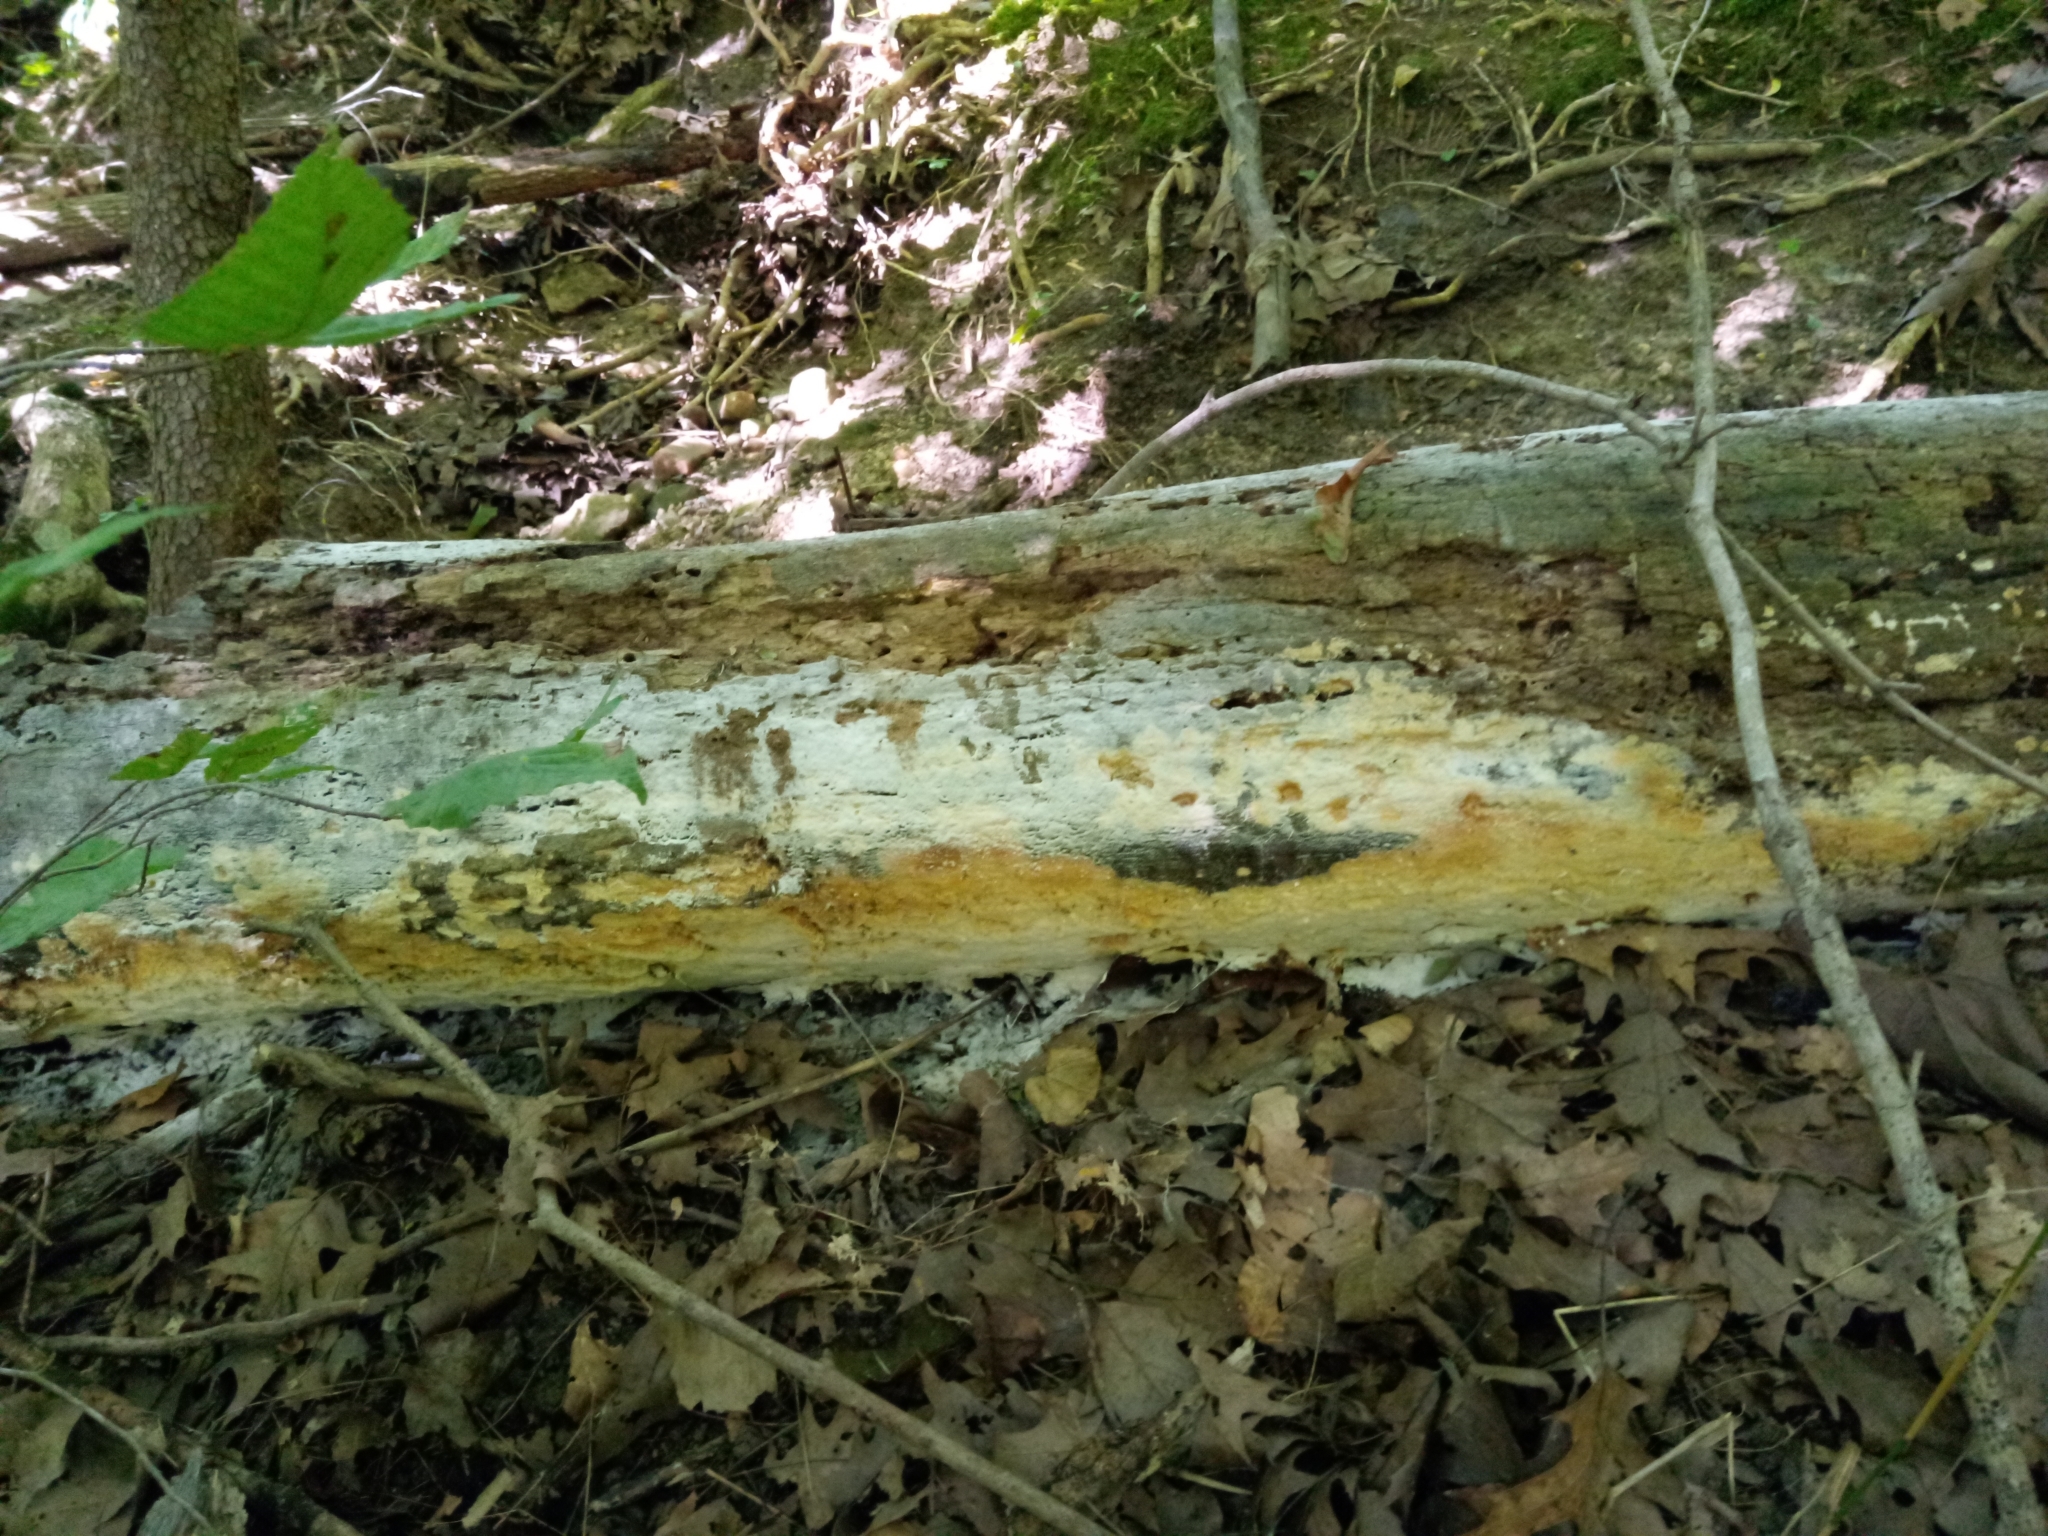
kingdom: Fungi
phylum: Basidiomycota
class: Agaricomycetes
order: Polyporales
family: Polyporaceae
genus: Poriella
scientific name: Poriella subacida
